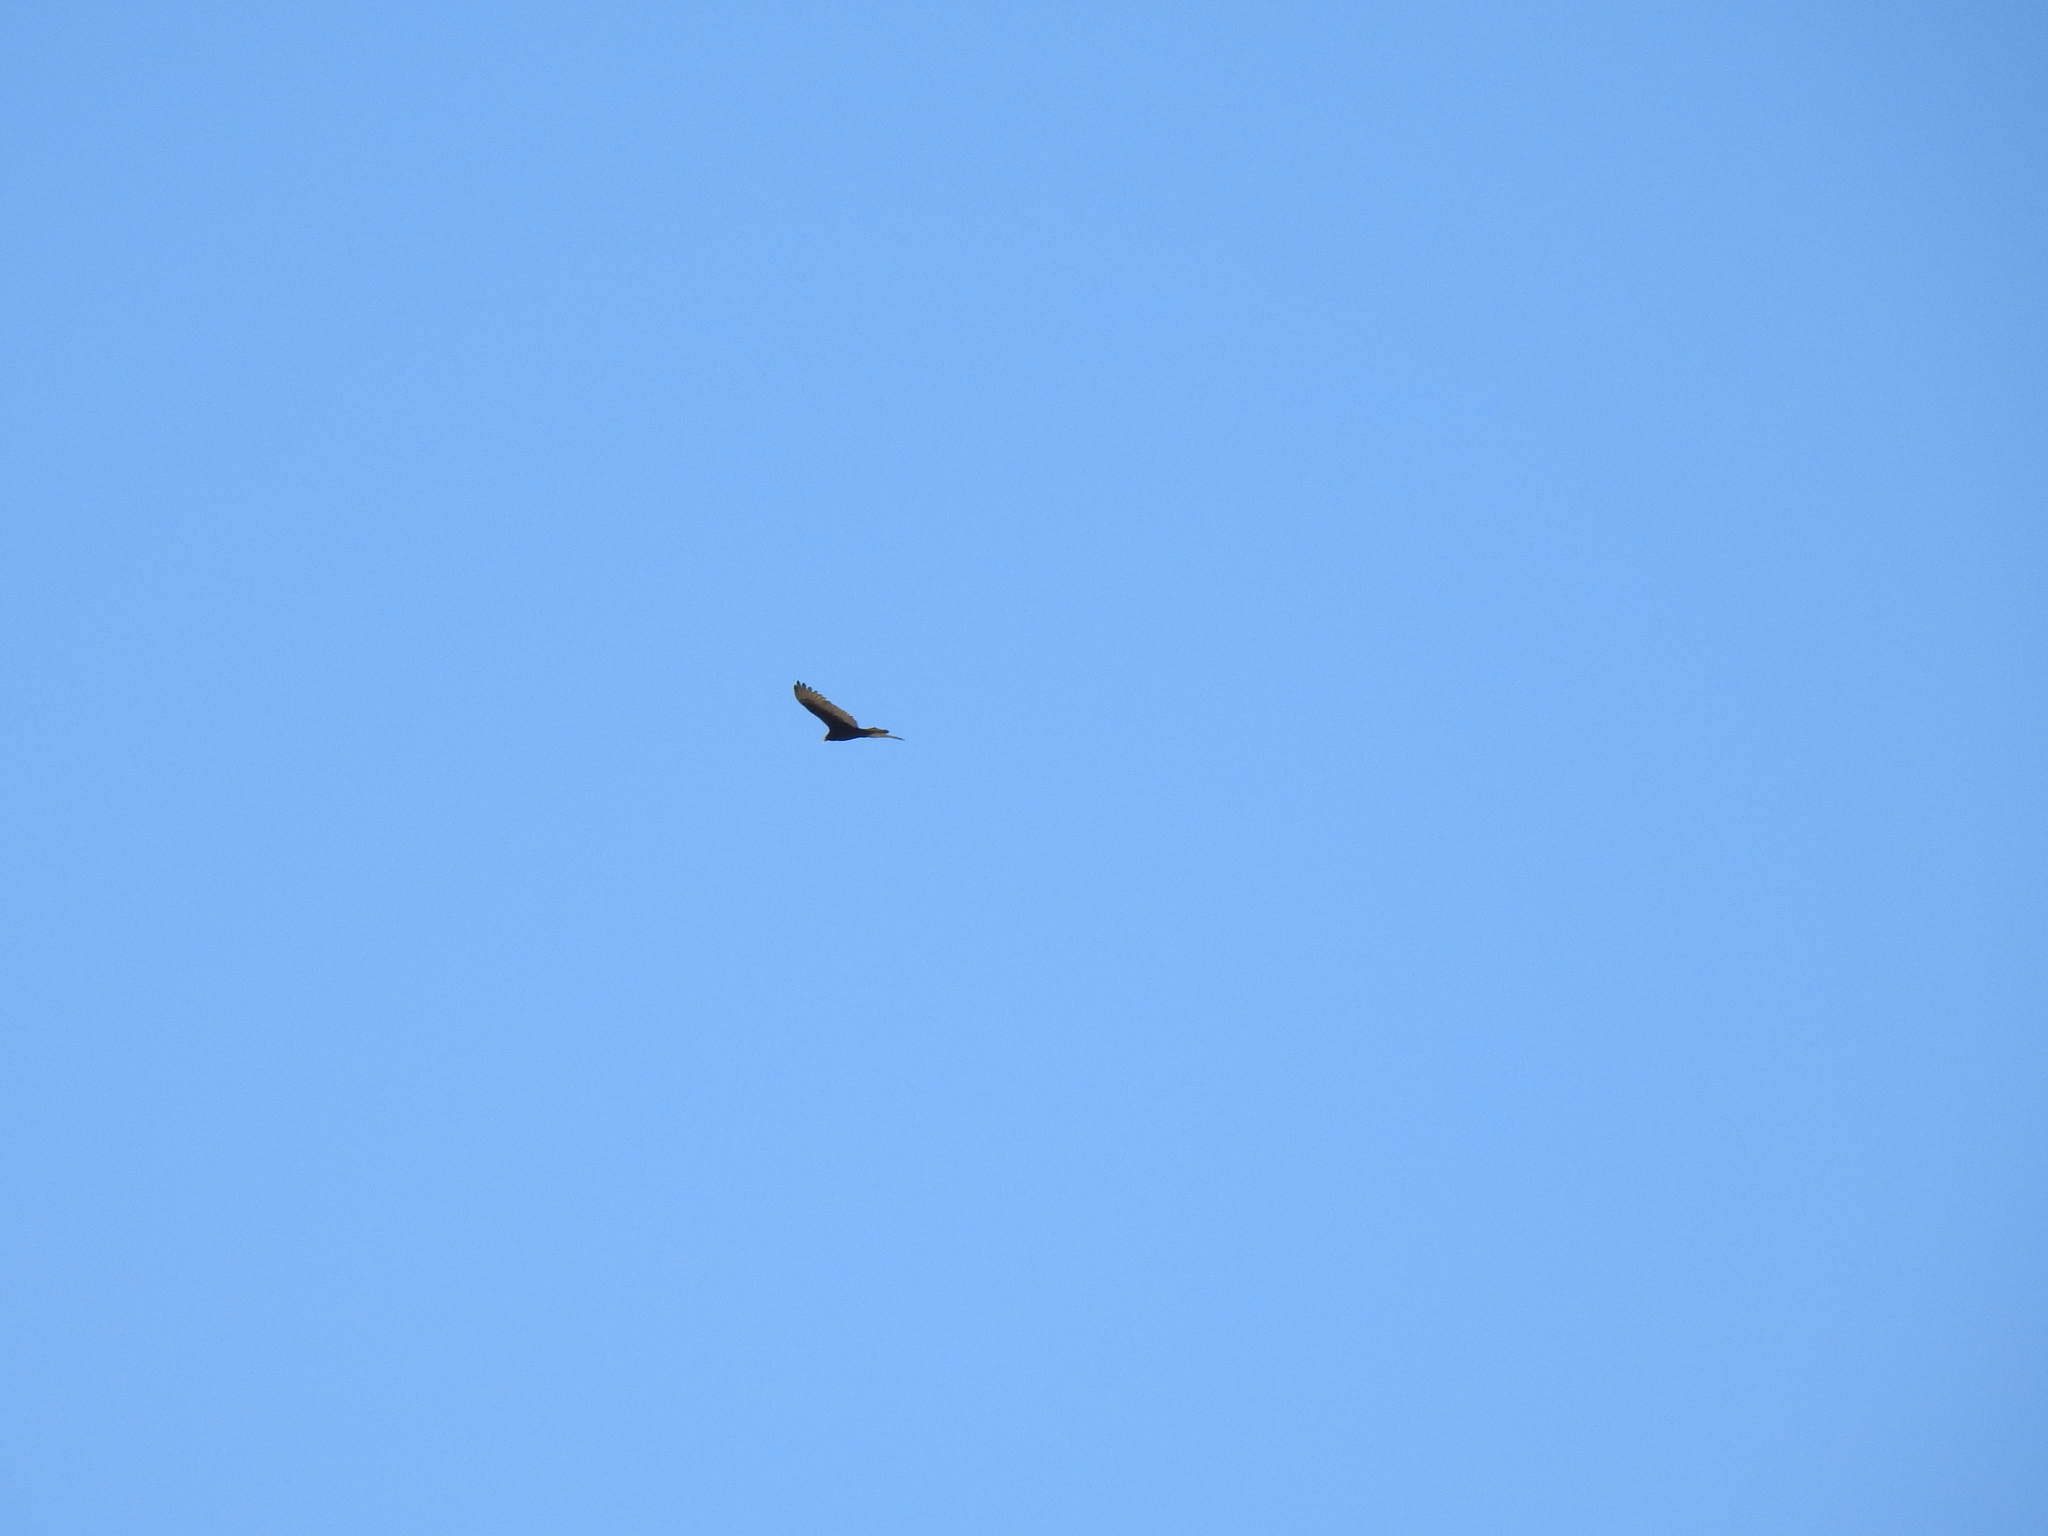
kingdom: Animalia
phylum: Chordata
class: Aves
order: Accipitriformes
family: Cathartidae
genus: Cathartes
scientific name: Cathartes aura
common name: Turkey vulture
